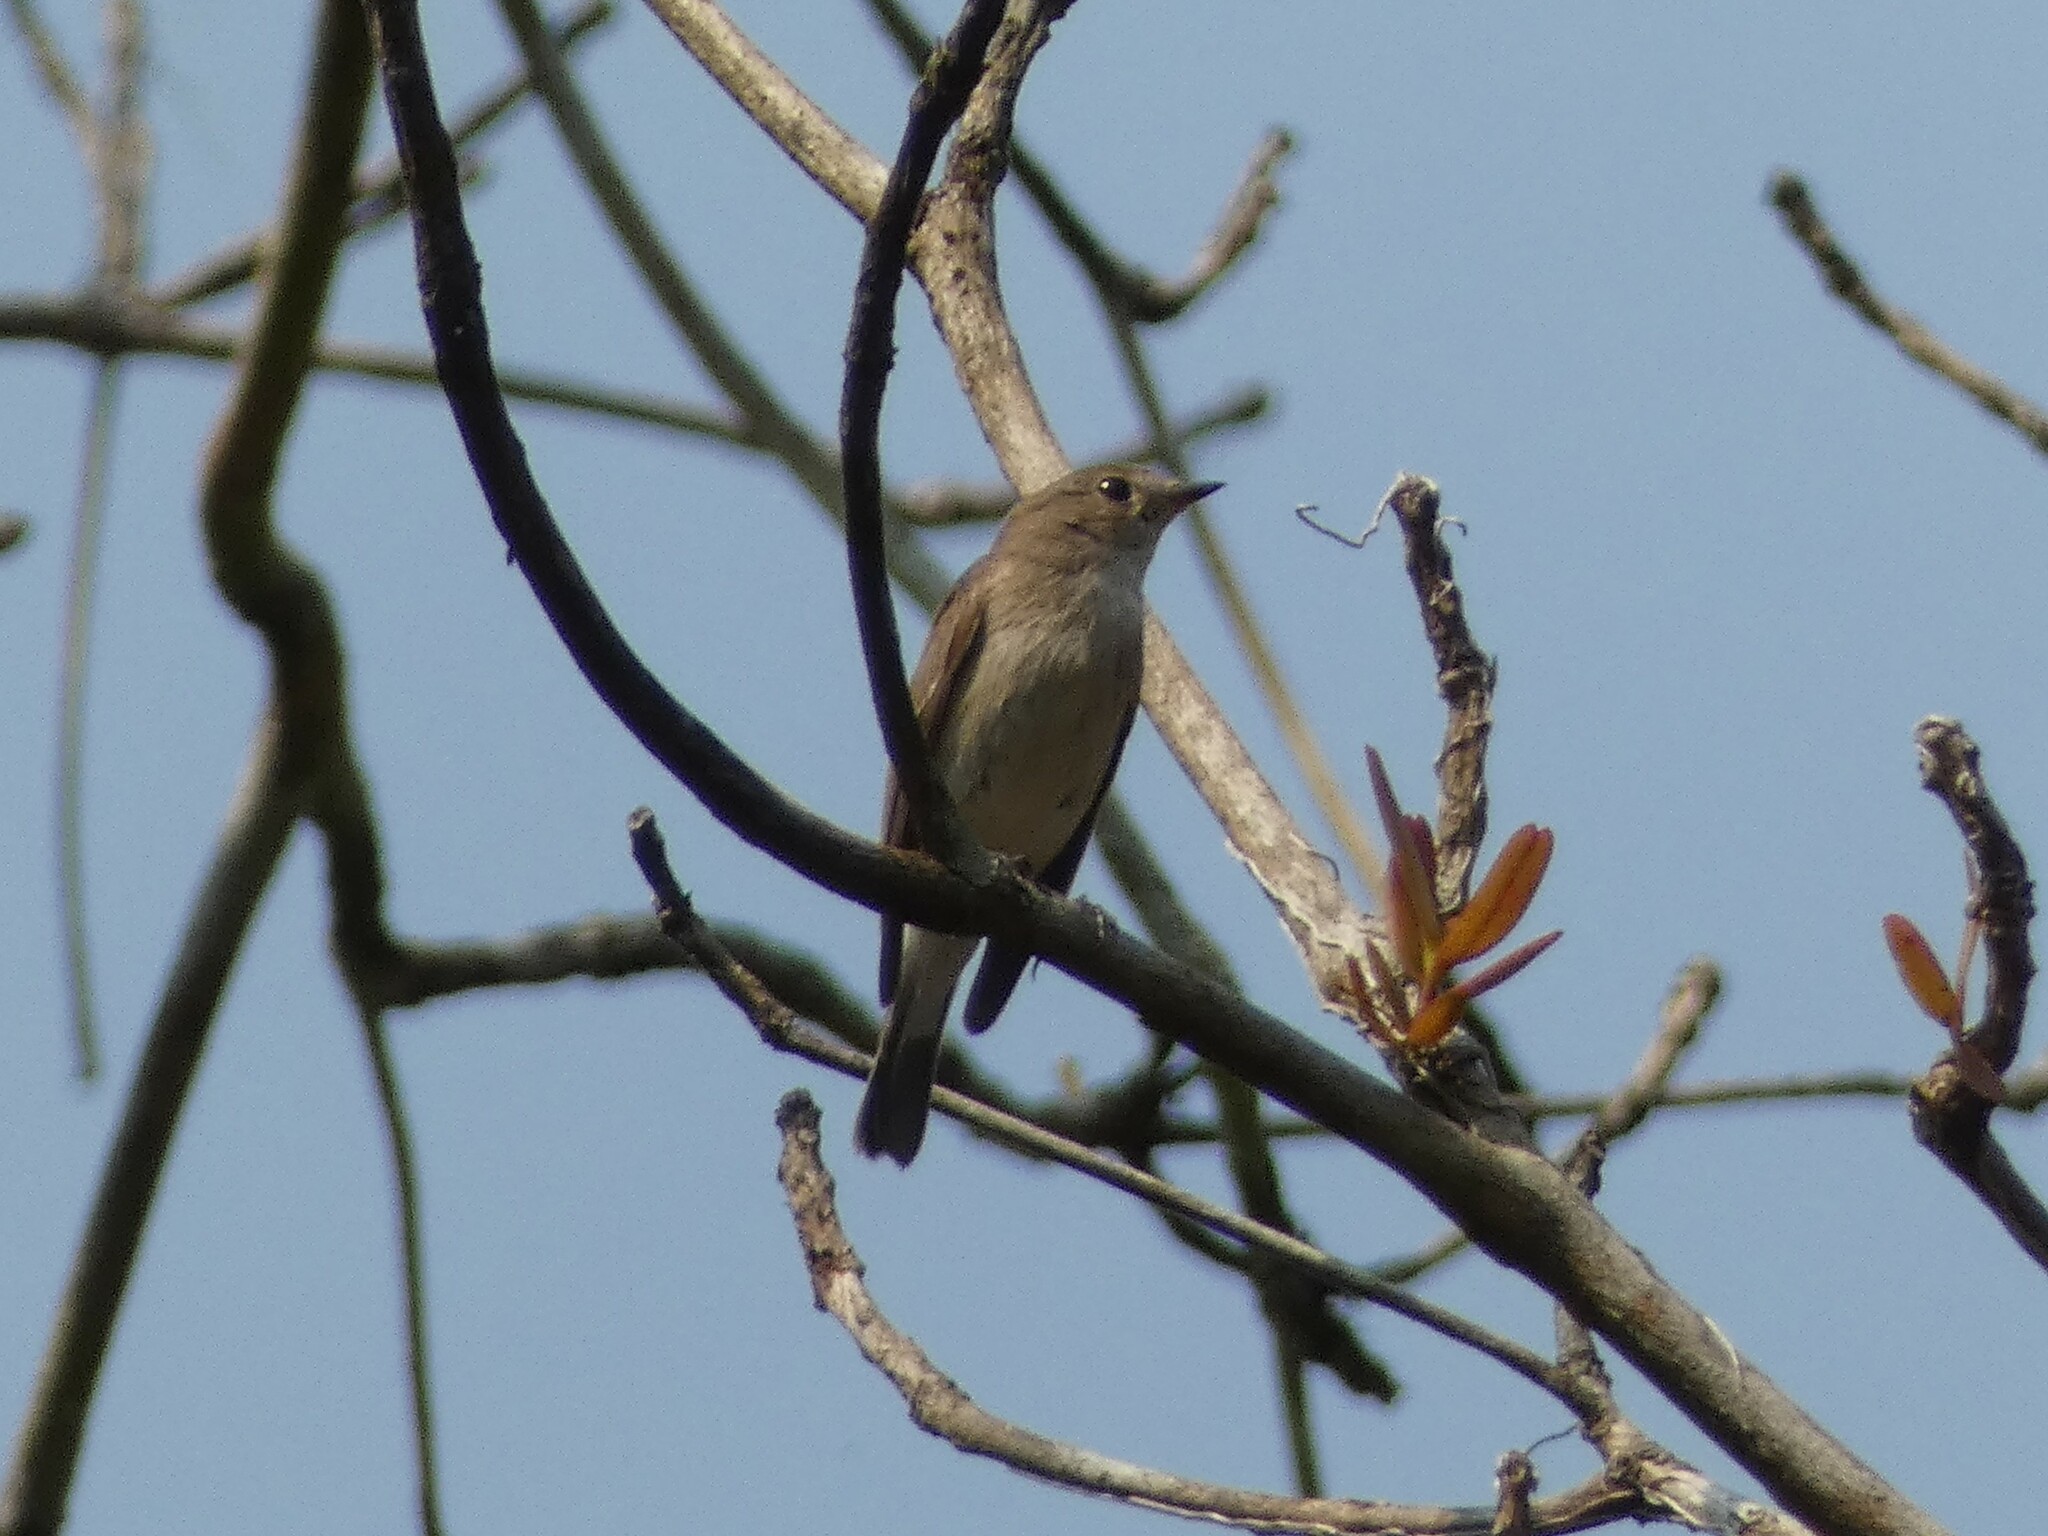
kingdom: Animalia
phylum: Chordata
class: Aves
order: Passeriformes
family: Muscicapidae
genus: Ficedula
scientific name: Ficedula albicilla
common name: Taiga flycatcher
